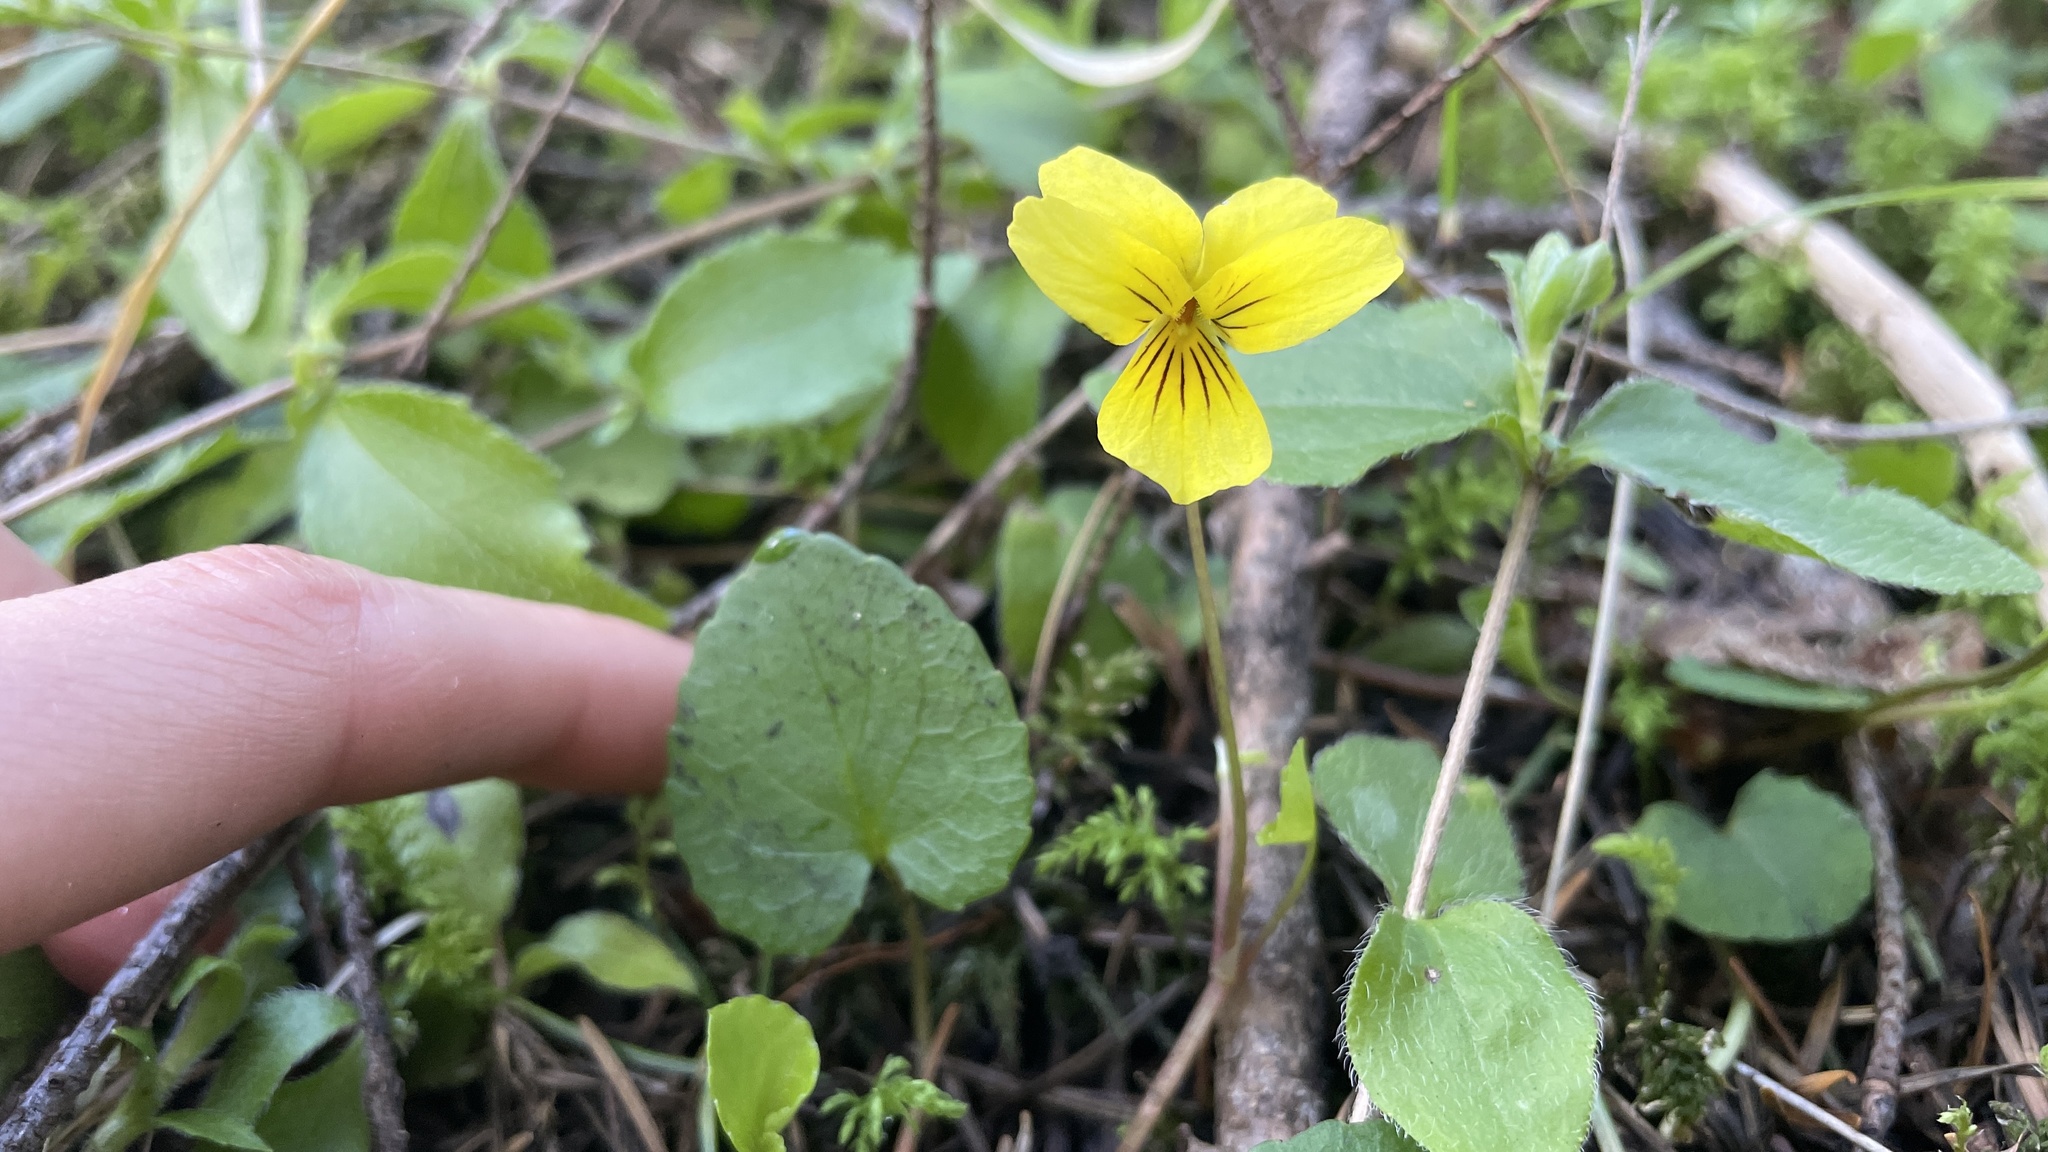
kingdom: Plantae
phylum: Tracheophyta
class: Magnoliopsida
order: Malpighiales
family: Violaceae
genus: Viola
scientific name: Viola sempervirens
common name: Evergreen violet
